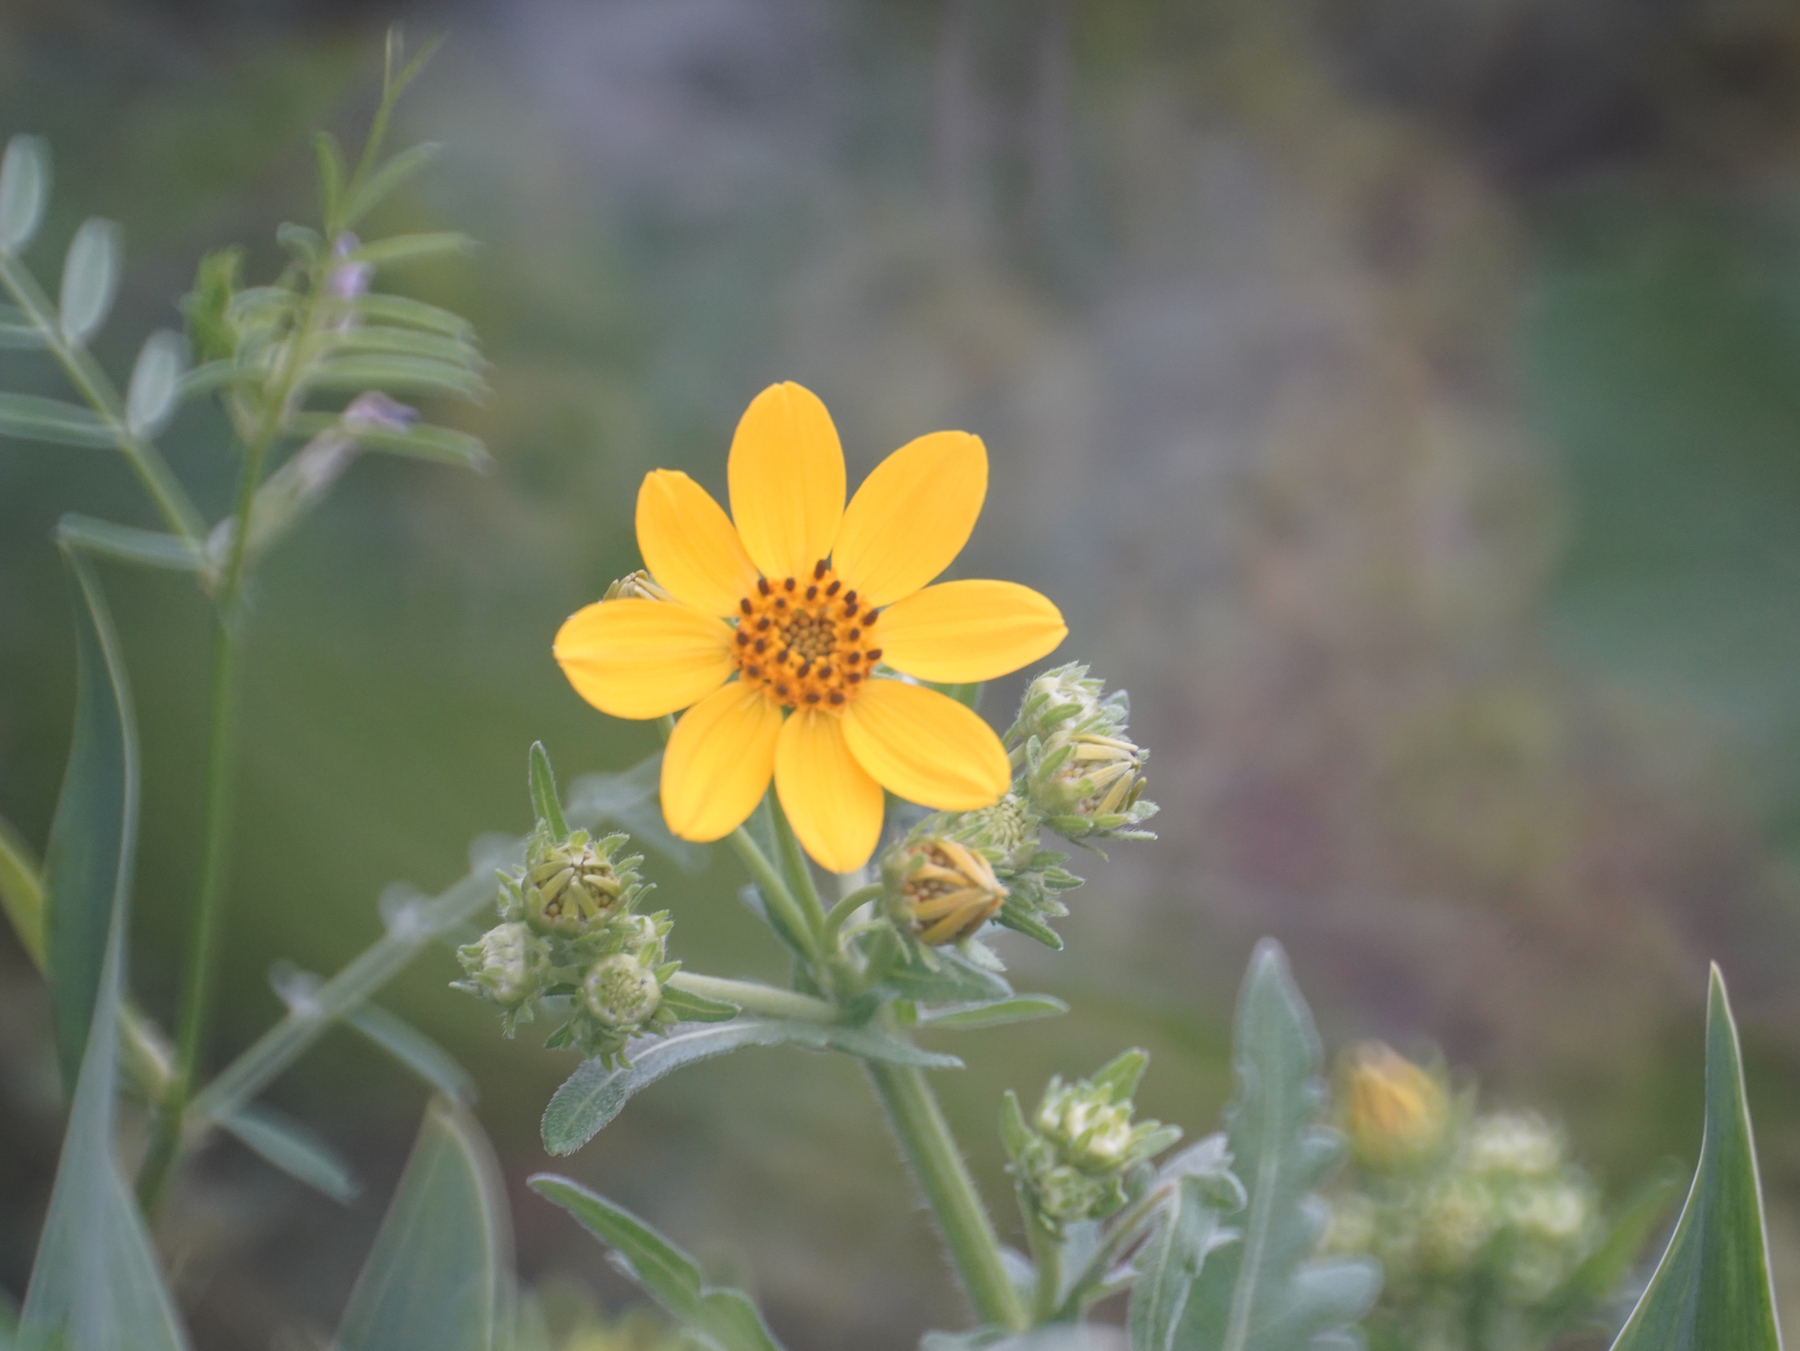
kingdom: Plantae
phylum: Tracheophyta
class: Magnoliopsida
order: Asterales
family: Asteraceae
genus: Engelmannia
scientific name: Engelmannia peristenia
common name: Engelmann's daisy
